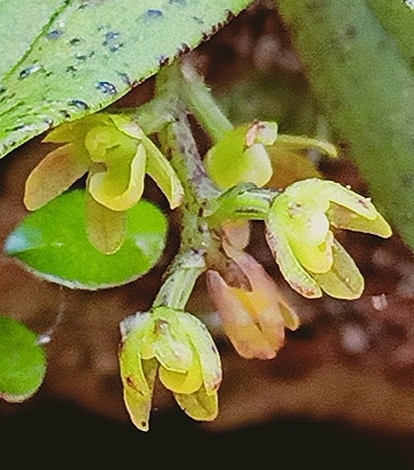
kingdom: Plantae
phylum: Tracheophyta
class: Liliopsida
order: Asparagales
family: Orchidaceae
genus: Drymoanthus
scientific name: Drymoanthus flavus
